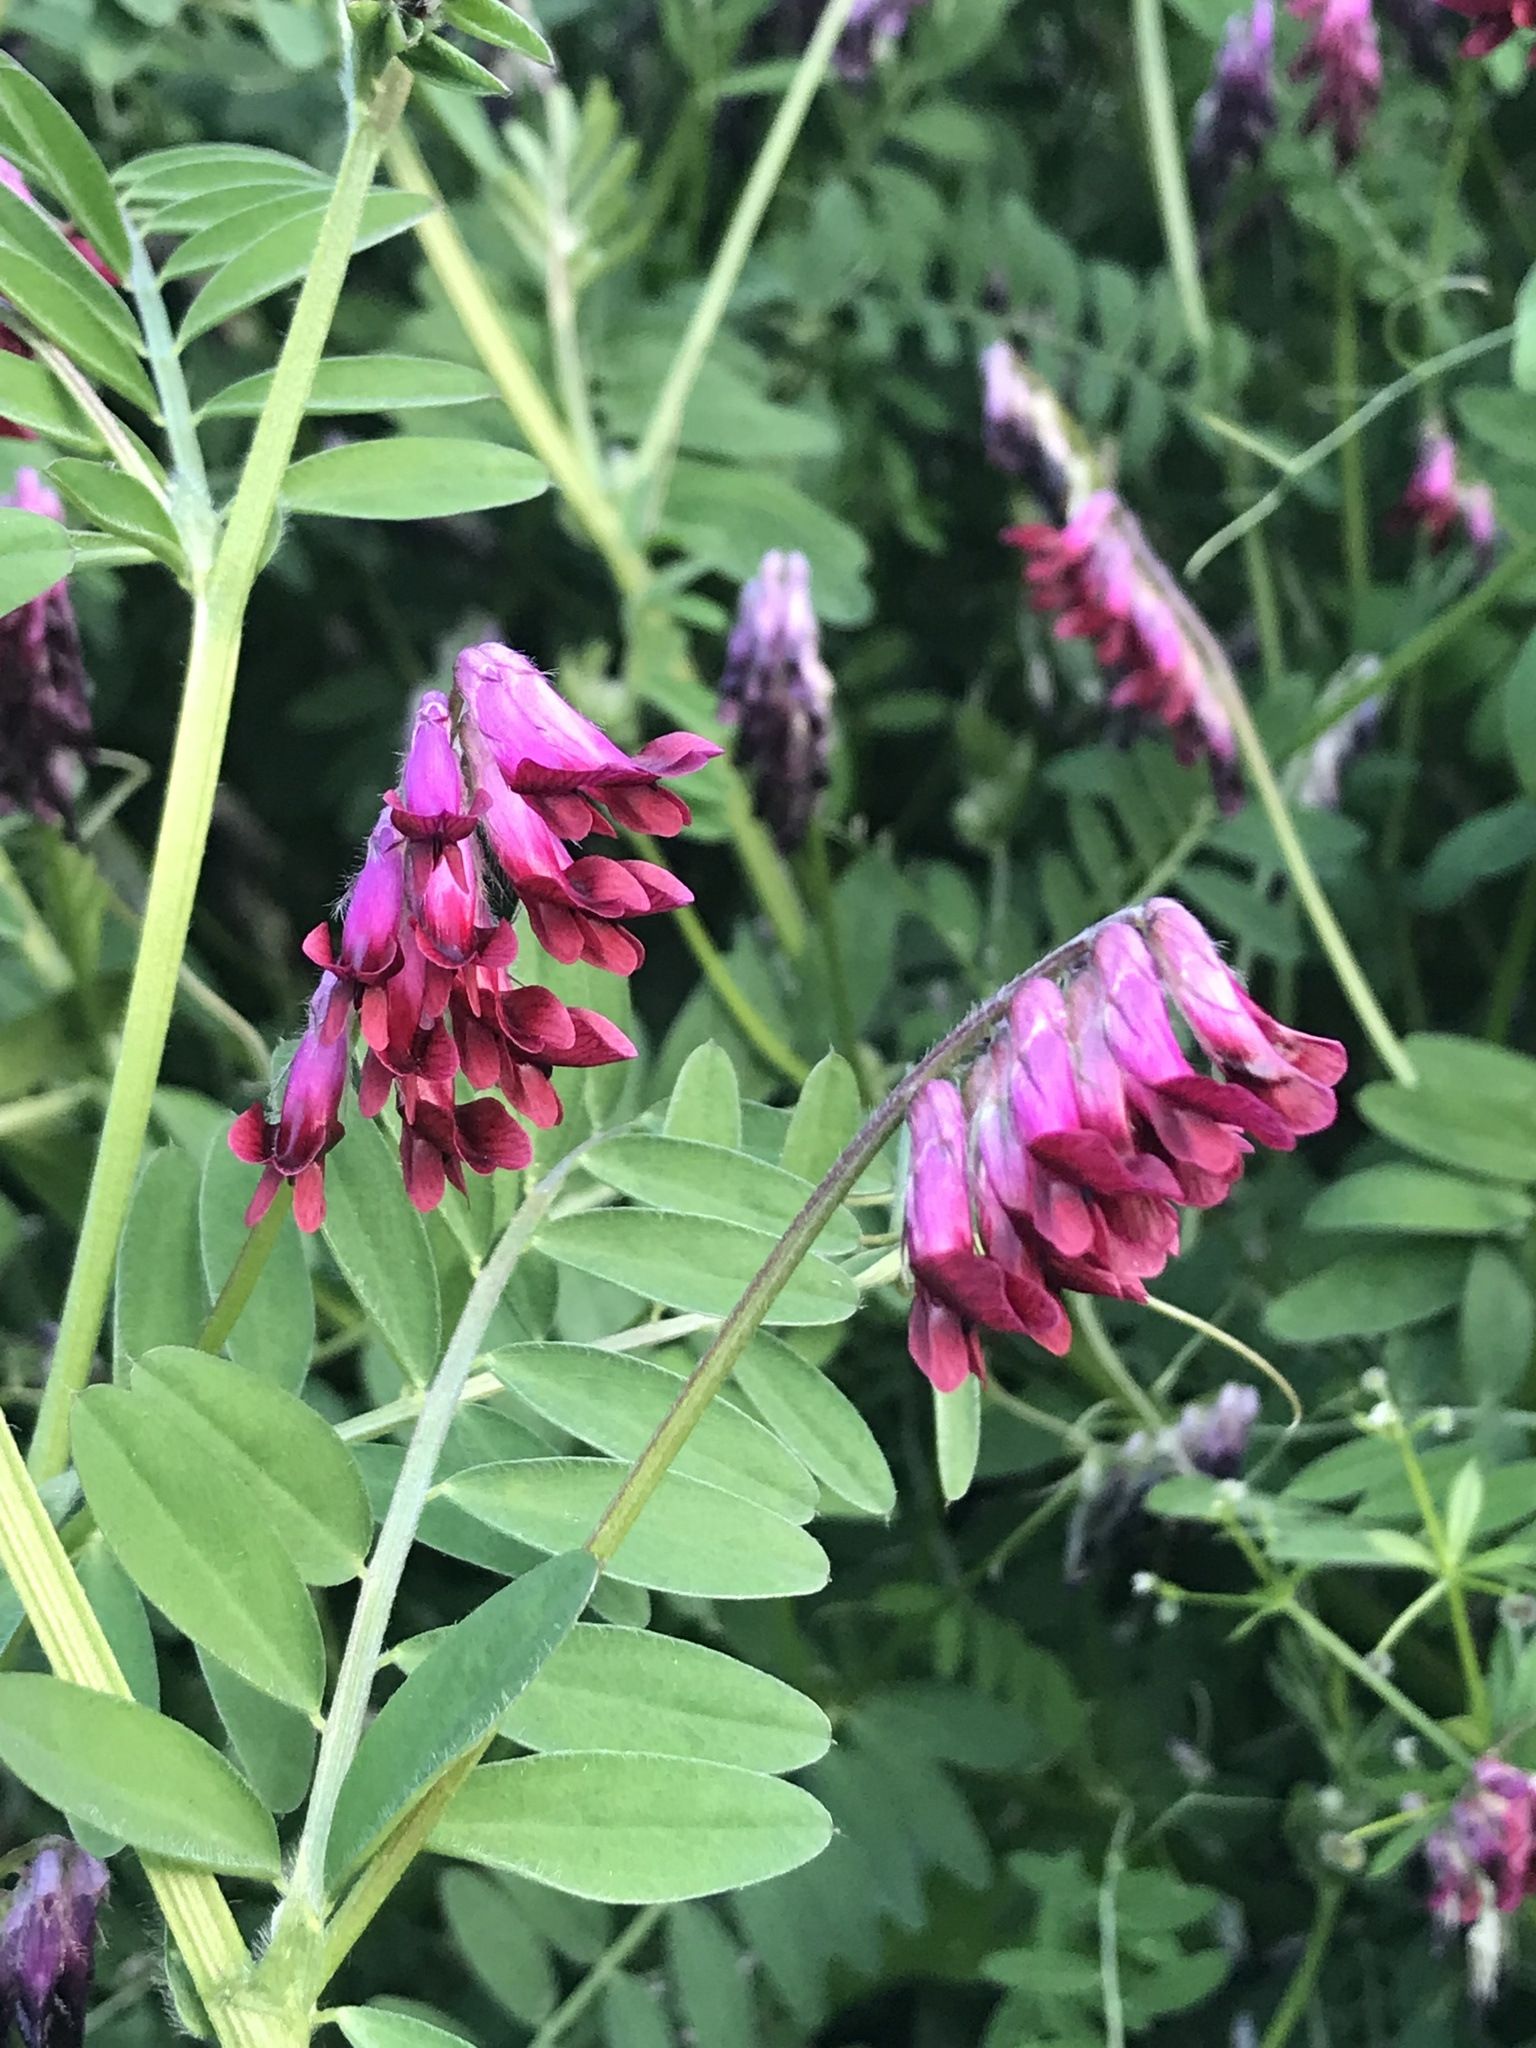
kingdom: Plantae
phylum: Tracheophyta
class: Magnoliopsida
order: Fabales
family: Fabaceae
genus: Vicia
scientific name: Vicia benghalensis
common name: Purple vetch
